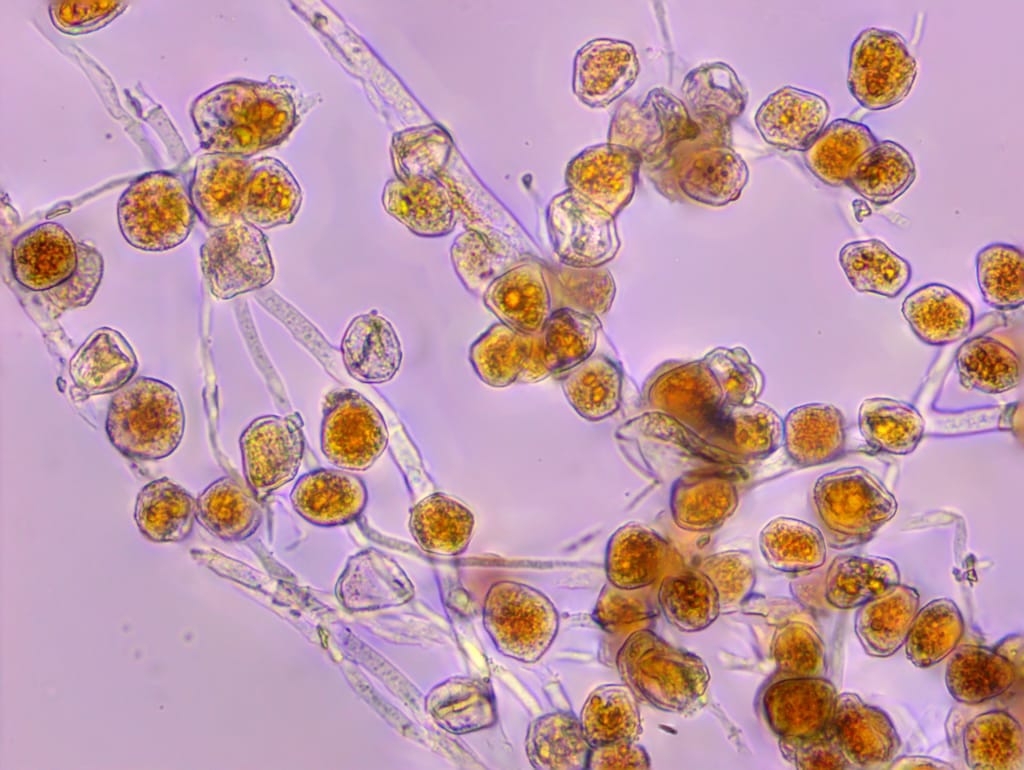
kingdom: Fungi
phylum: Basidiomycota
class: Pucciniomycetes
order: Pucciniales
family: Pucciniaceae
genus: Uromyces
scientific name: Uromyces
